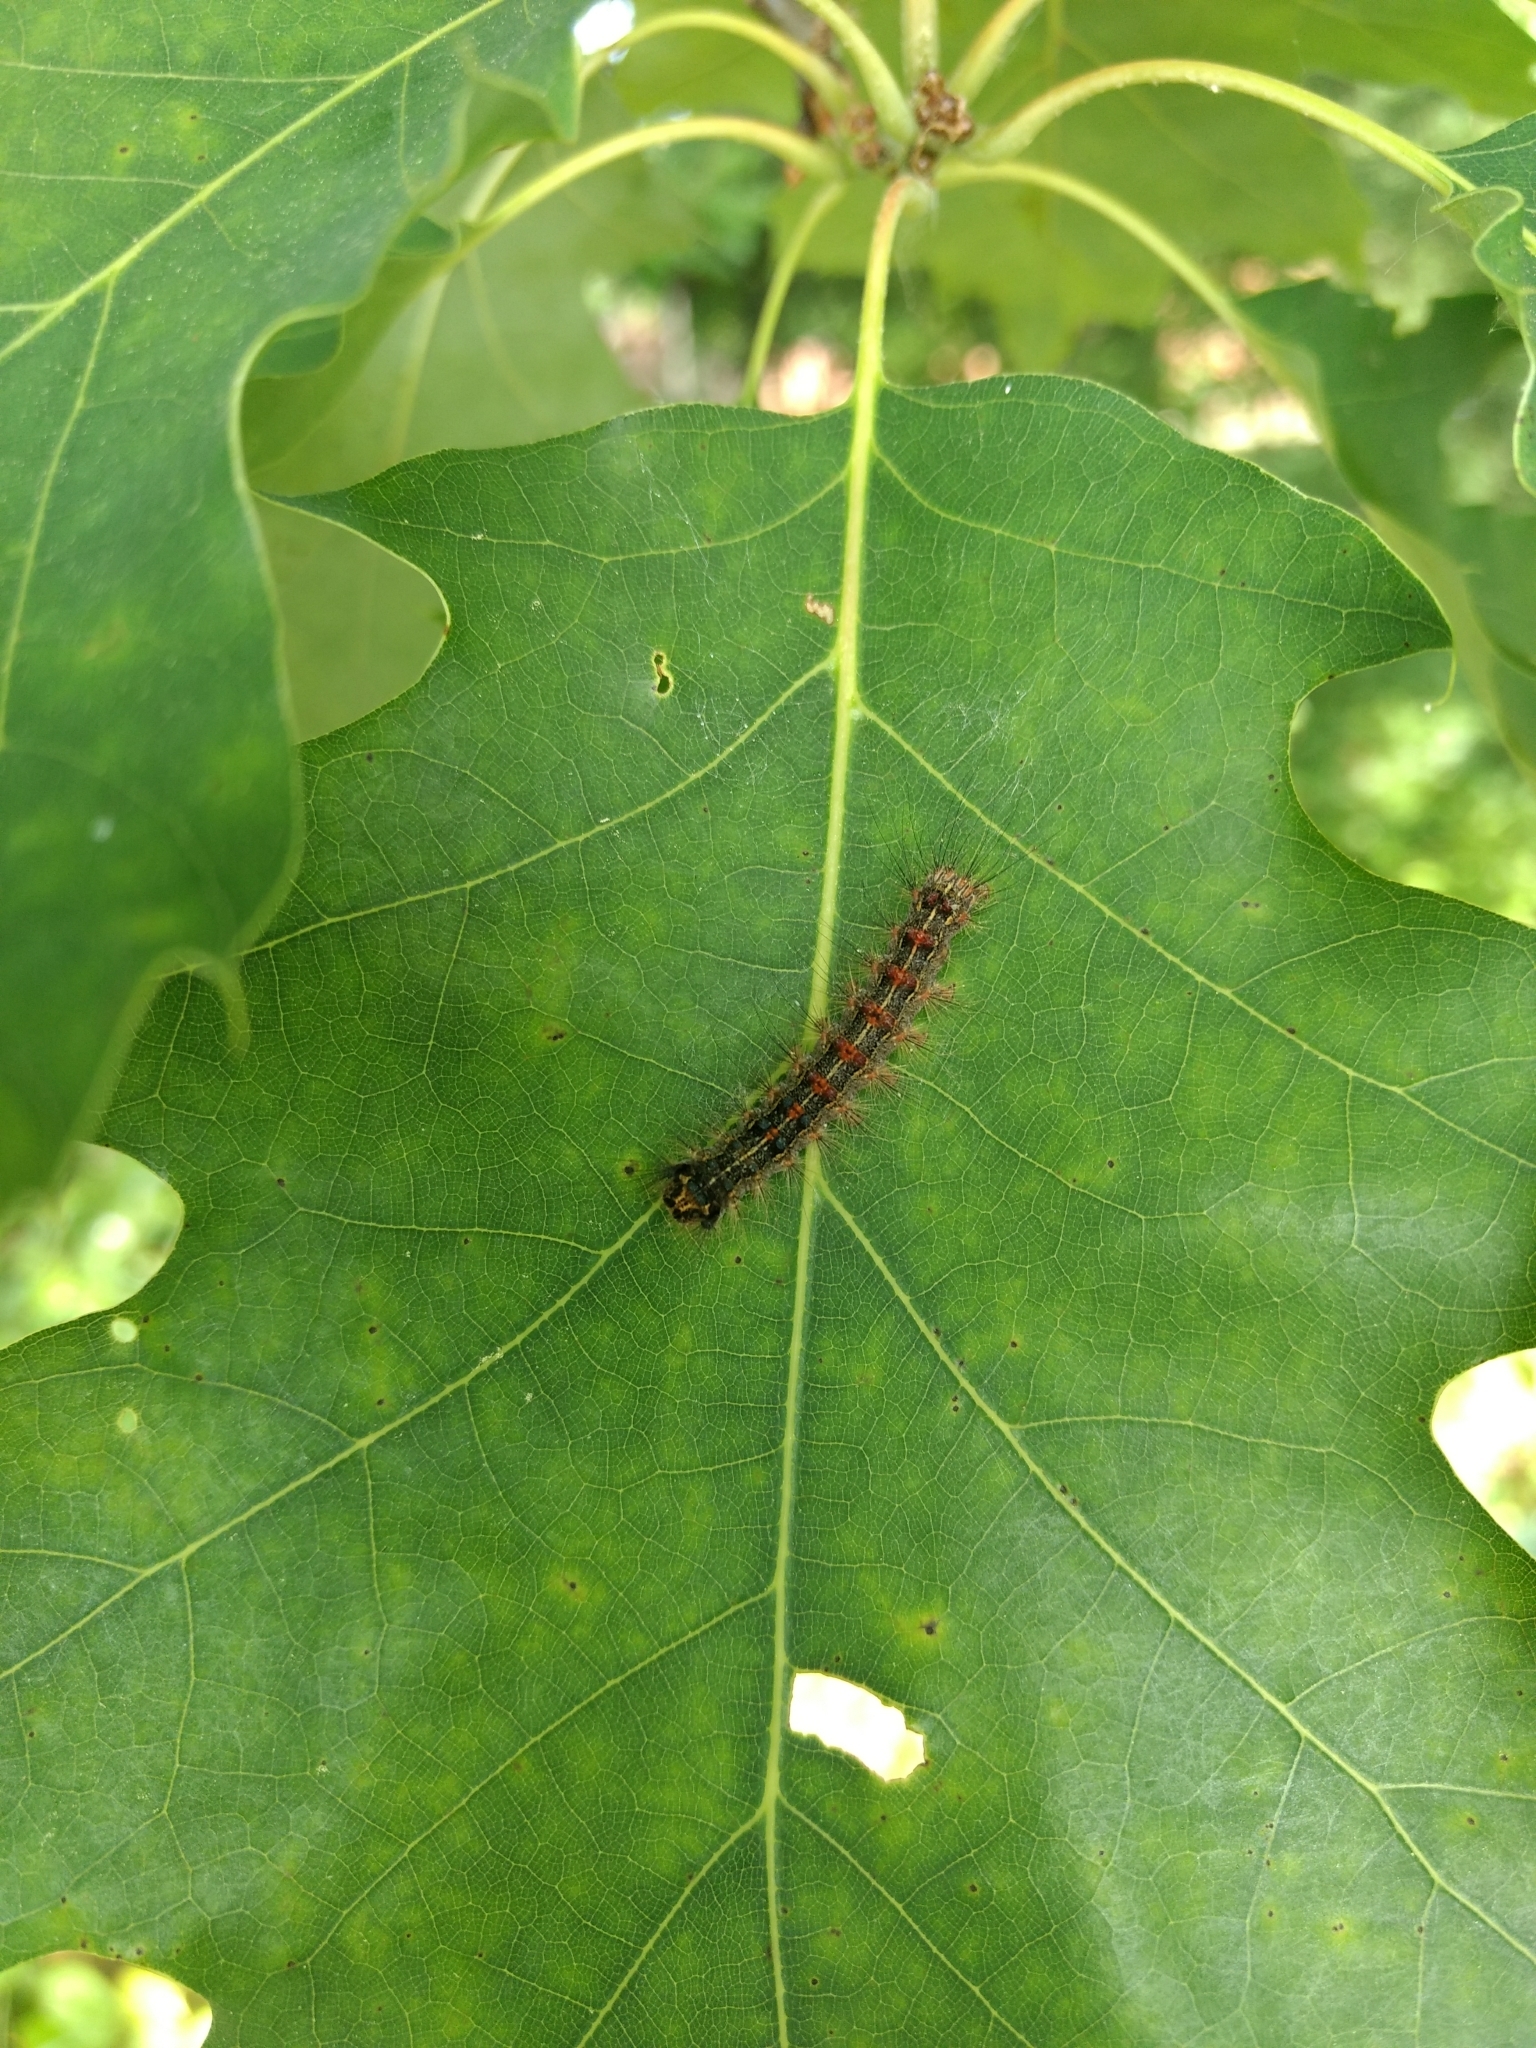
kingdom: Animalia
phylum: Arthropoda
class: Insecta
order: Lepidoptera
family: Erebidae
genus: Lymantria
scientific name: Lymantria dispar
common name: Gypsy moth
